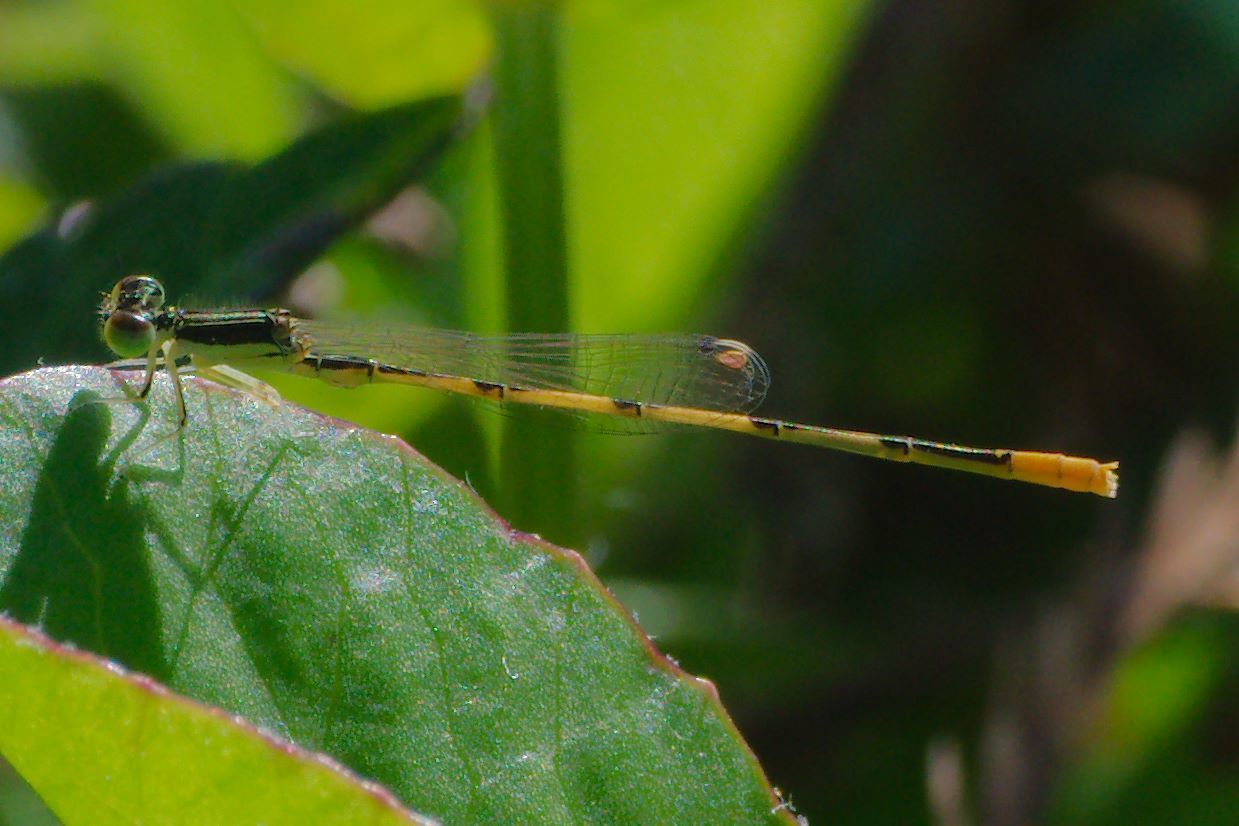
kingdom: Animalia
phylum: Arthropoda
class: Insecta
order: Odonata
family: Coenagrionidae
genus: Ischnura
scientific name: Ischnura hastata
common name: Citrine forktail
